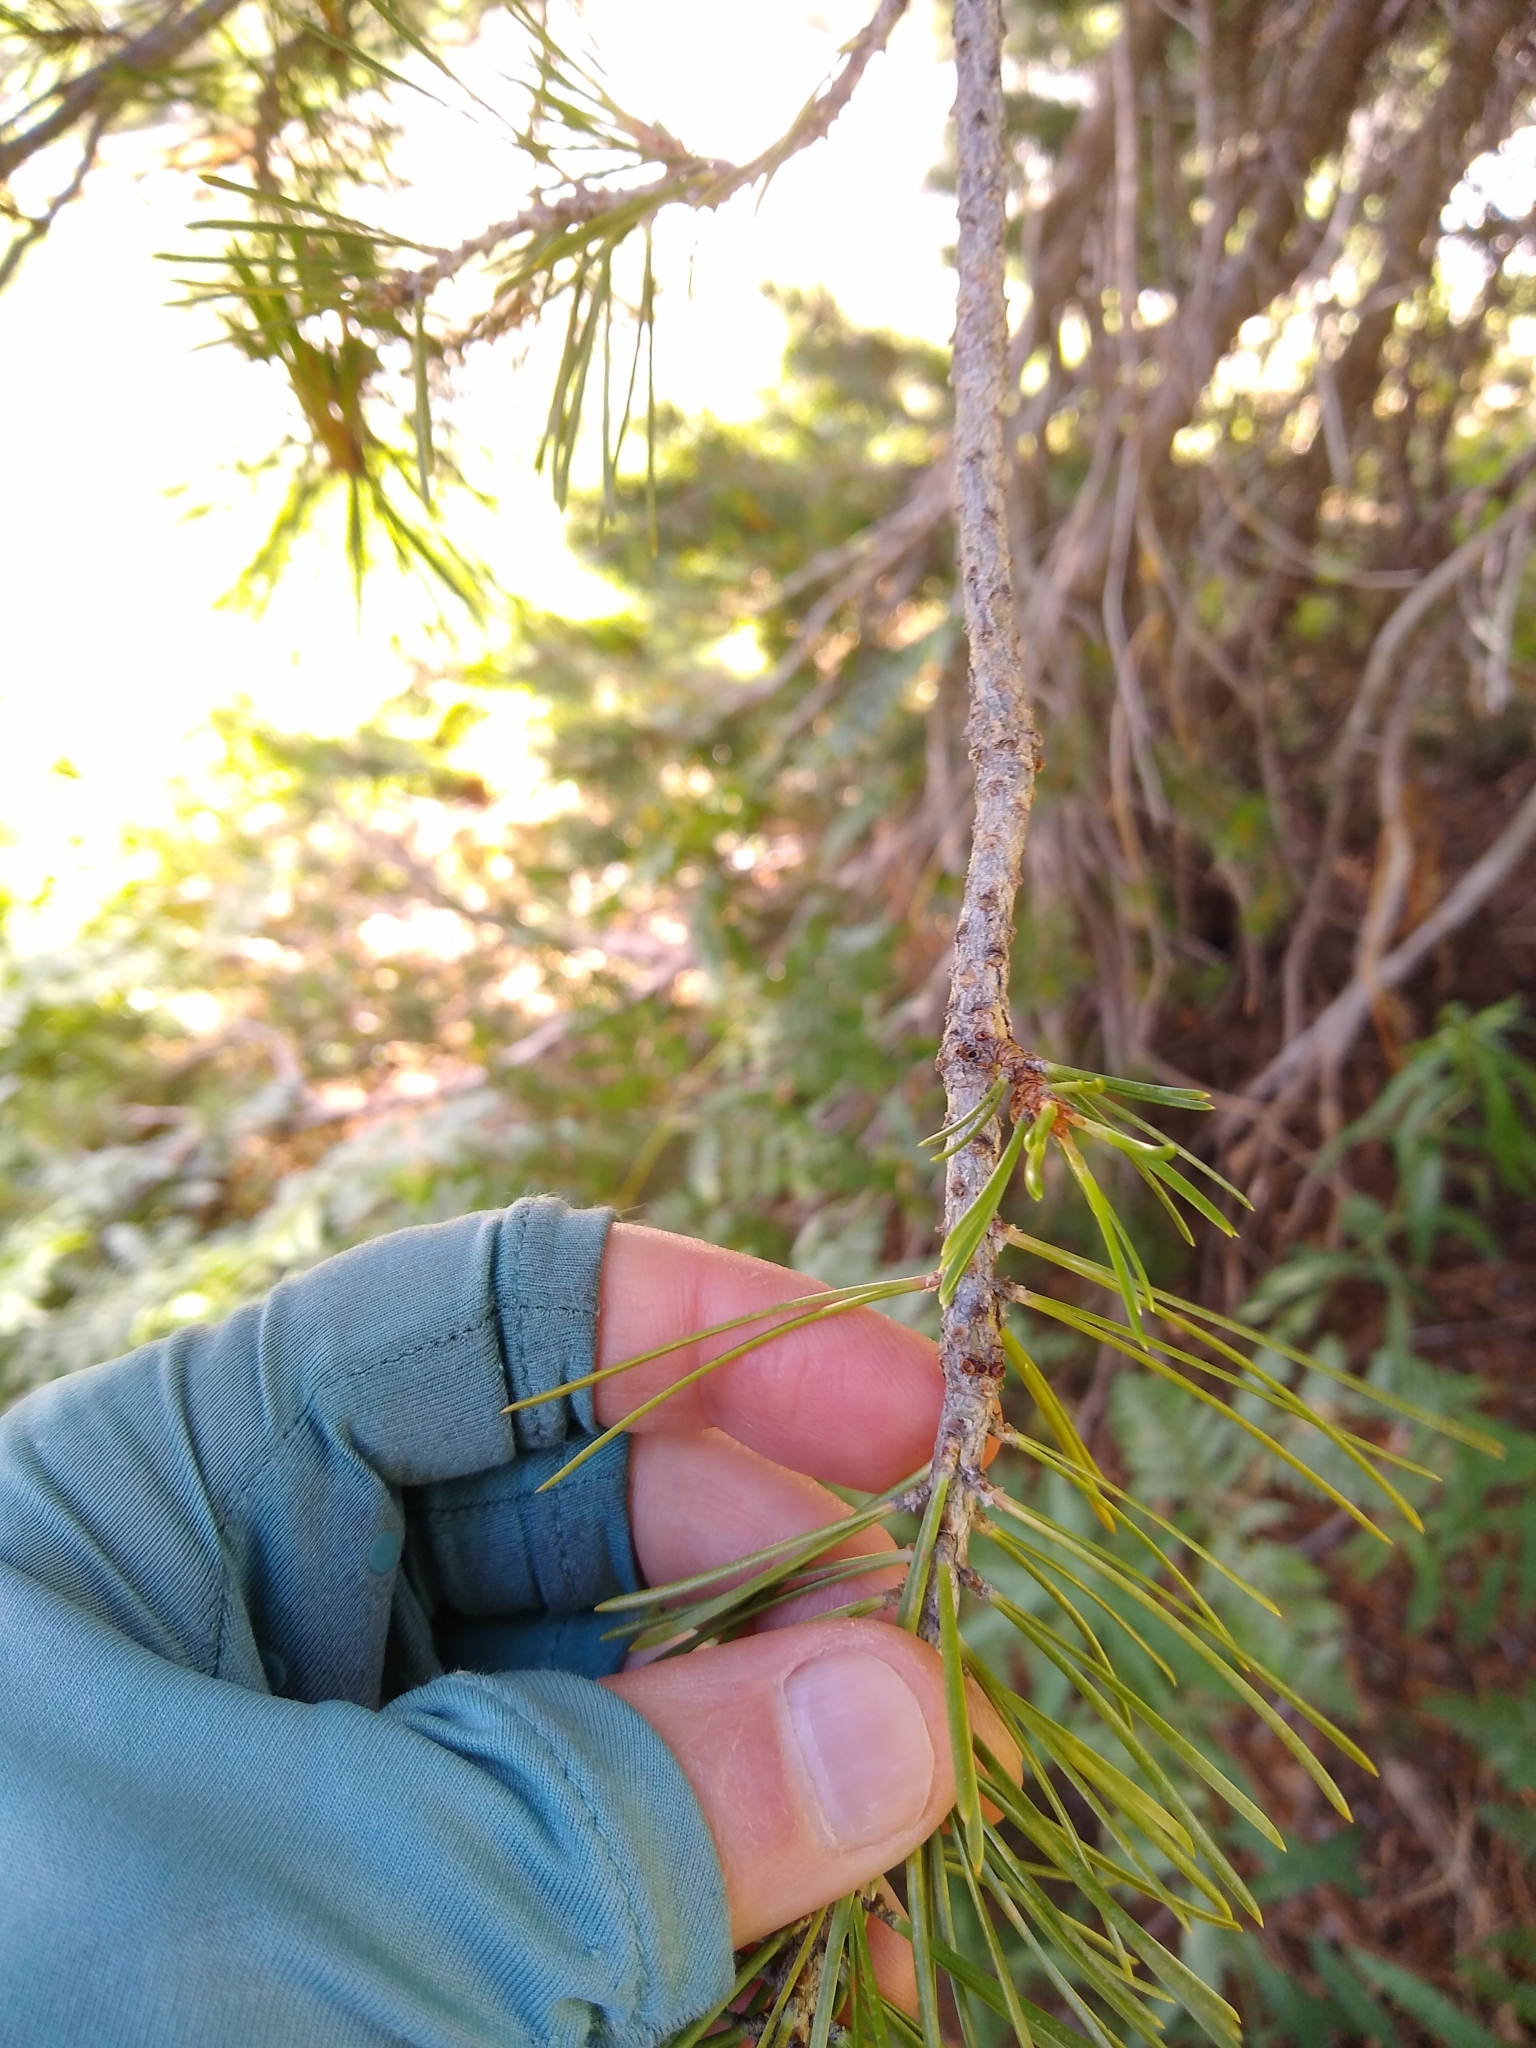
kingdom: Plantae
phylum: Tracheophyta
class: Pinopsida
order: Pinales
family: Pinaceae
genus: Pinus
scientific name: Pinus contorta
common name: Lodgepole pine
